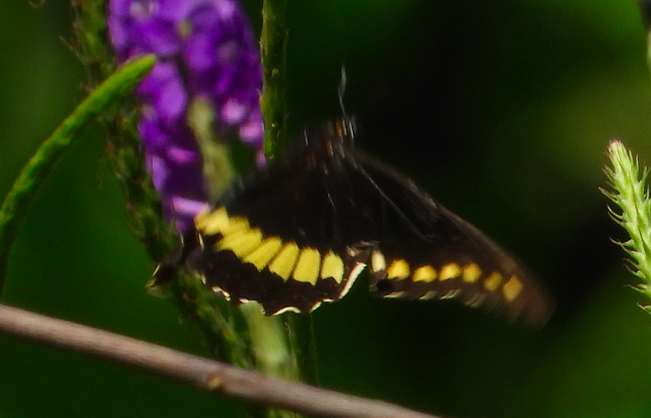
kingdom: Animalia
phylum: Arthropoda
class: Insecta
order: Lepidoptera
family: Papilionidae
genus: Battus
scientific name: Battus polydamas
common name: Polydamas swallowtail
